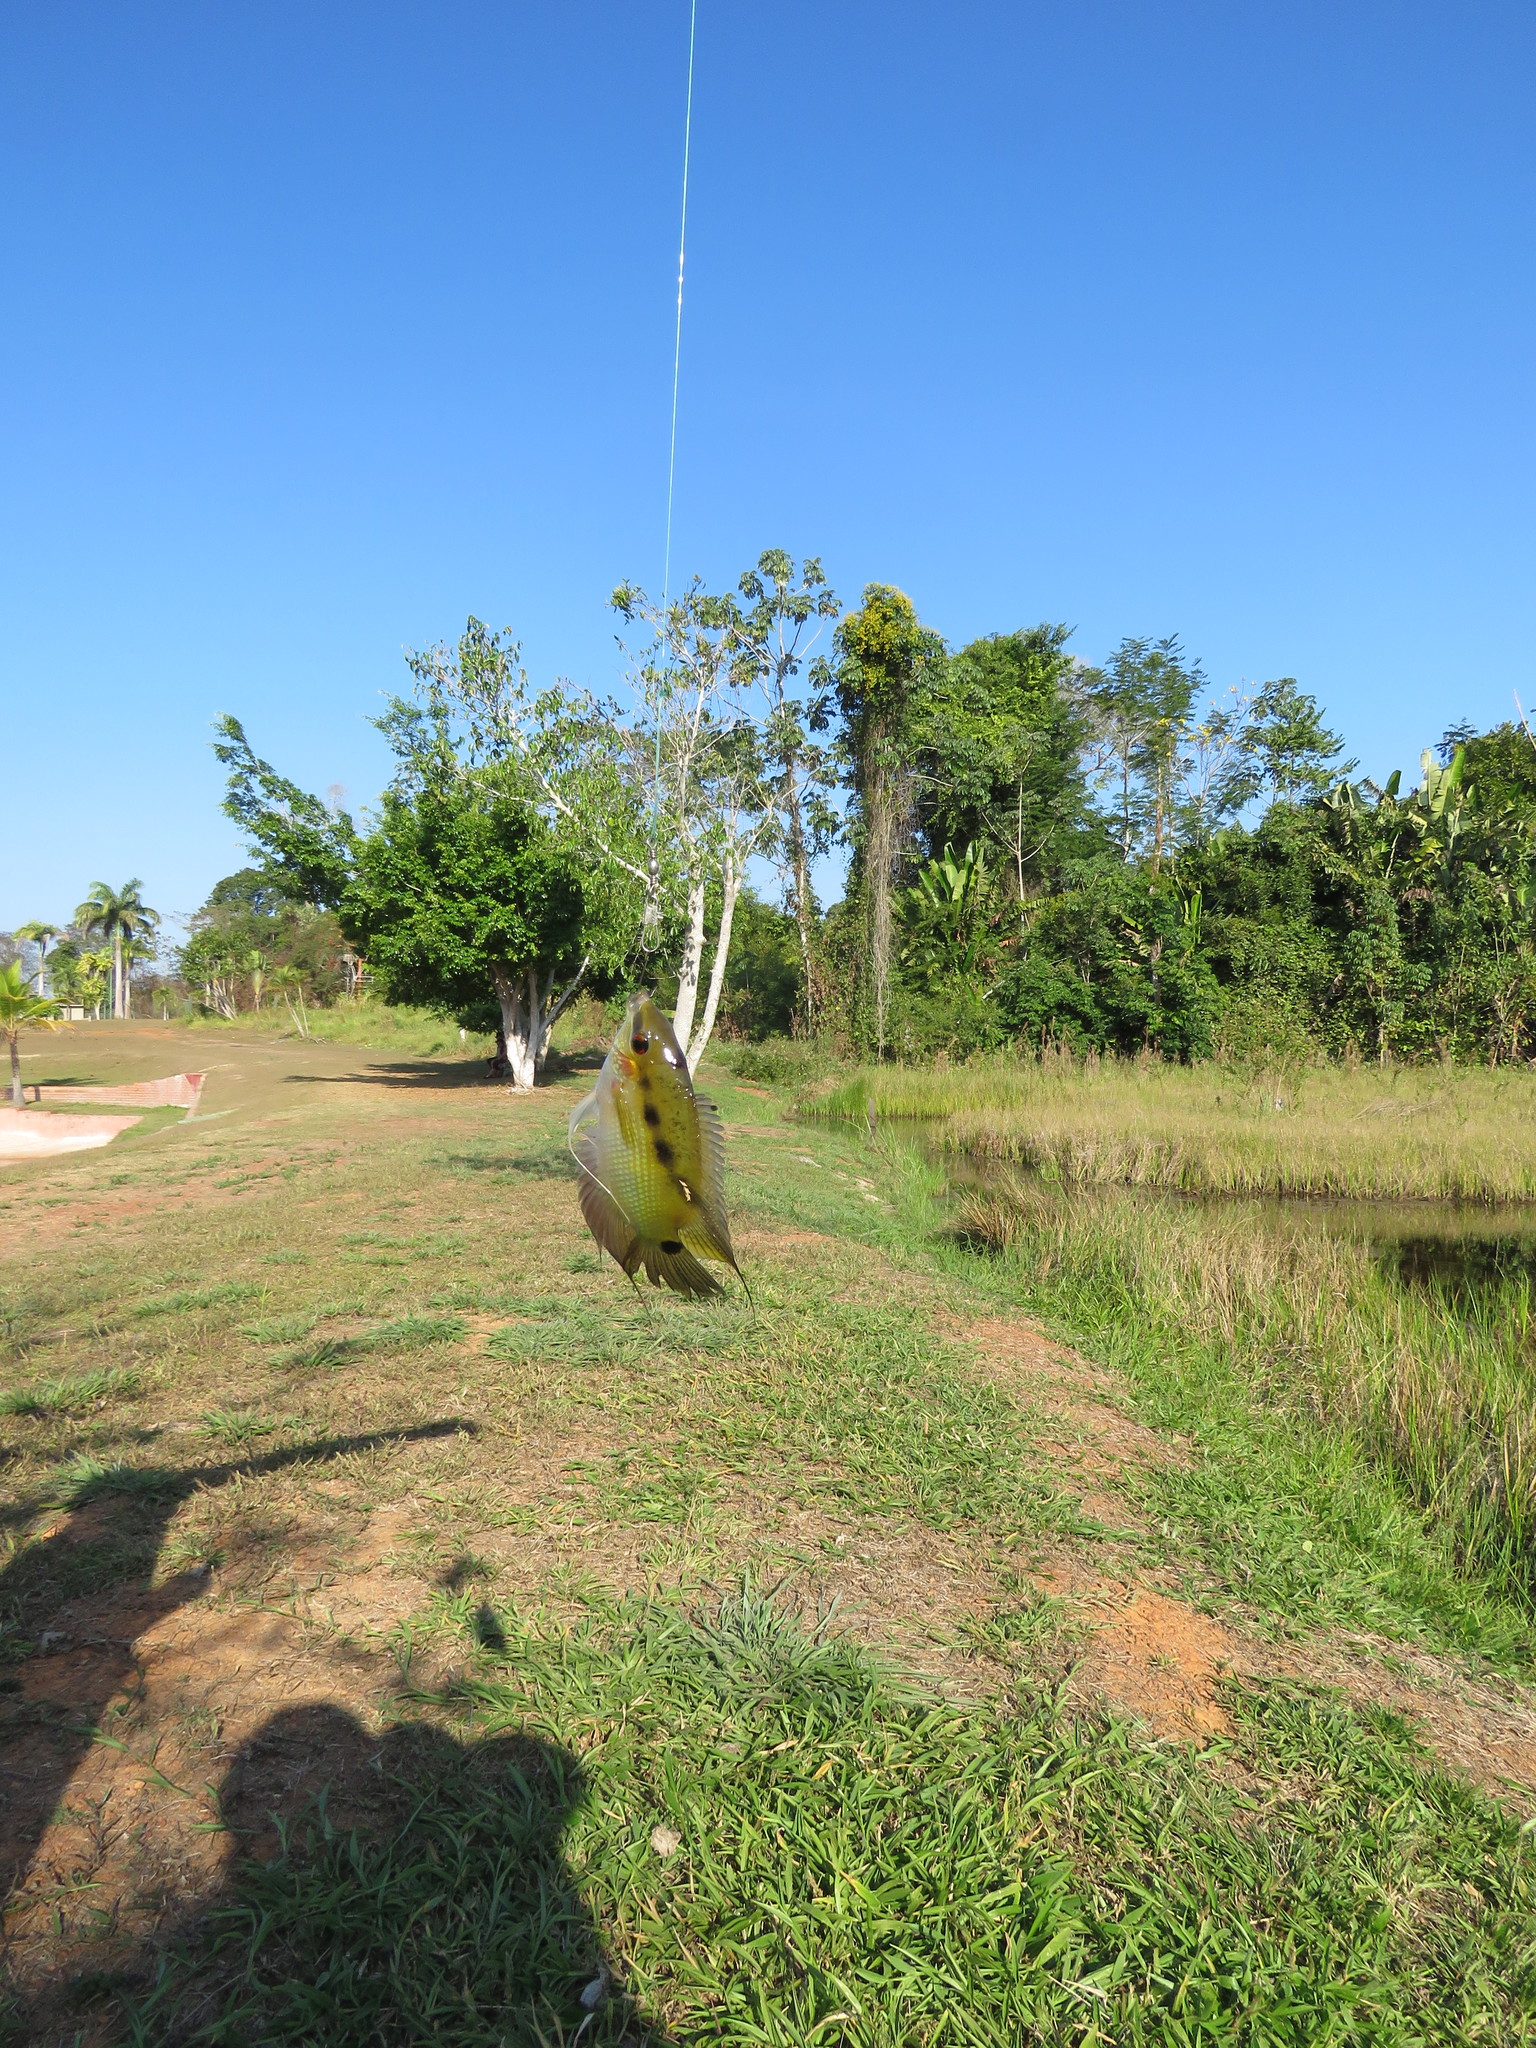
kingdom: Animalia
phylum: Chordata
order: Perciformes
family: Cichlidae
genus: Mesonauta
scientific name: Mesonauta festivus
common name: Flag cichlid
